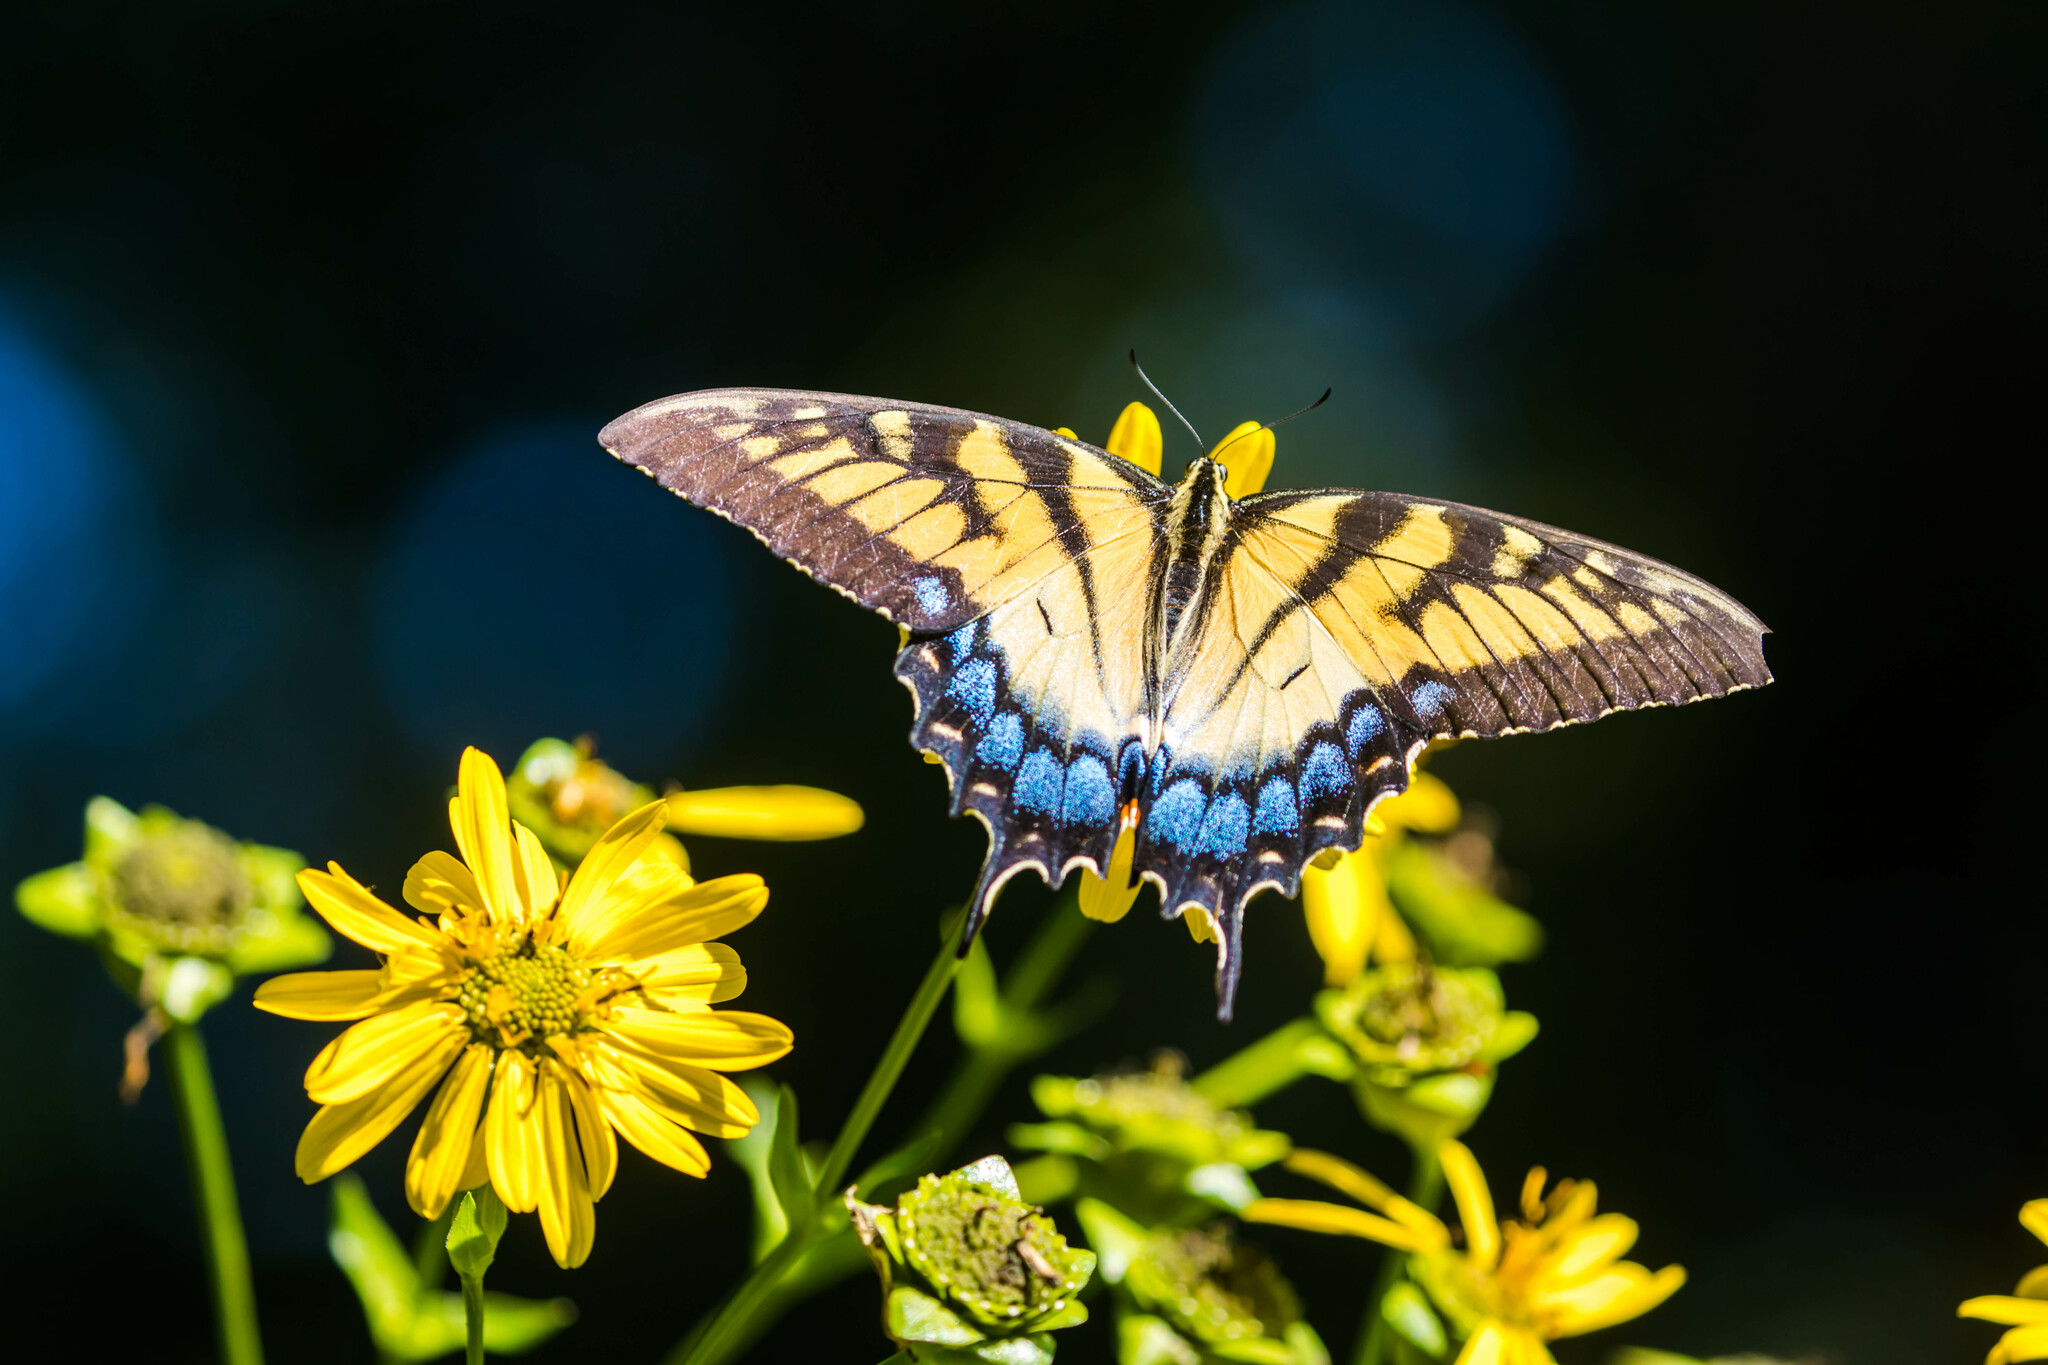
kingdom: Animalia
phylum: Arthropoda
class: Insecta
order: Lepidoptera
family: Papilionidae
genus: Papilio
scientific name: Papilio glaucus
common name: Tiger swallowtail
